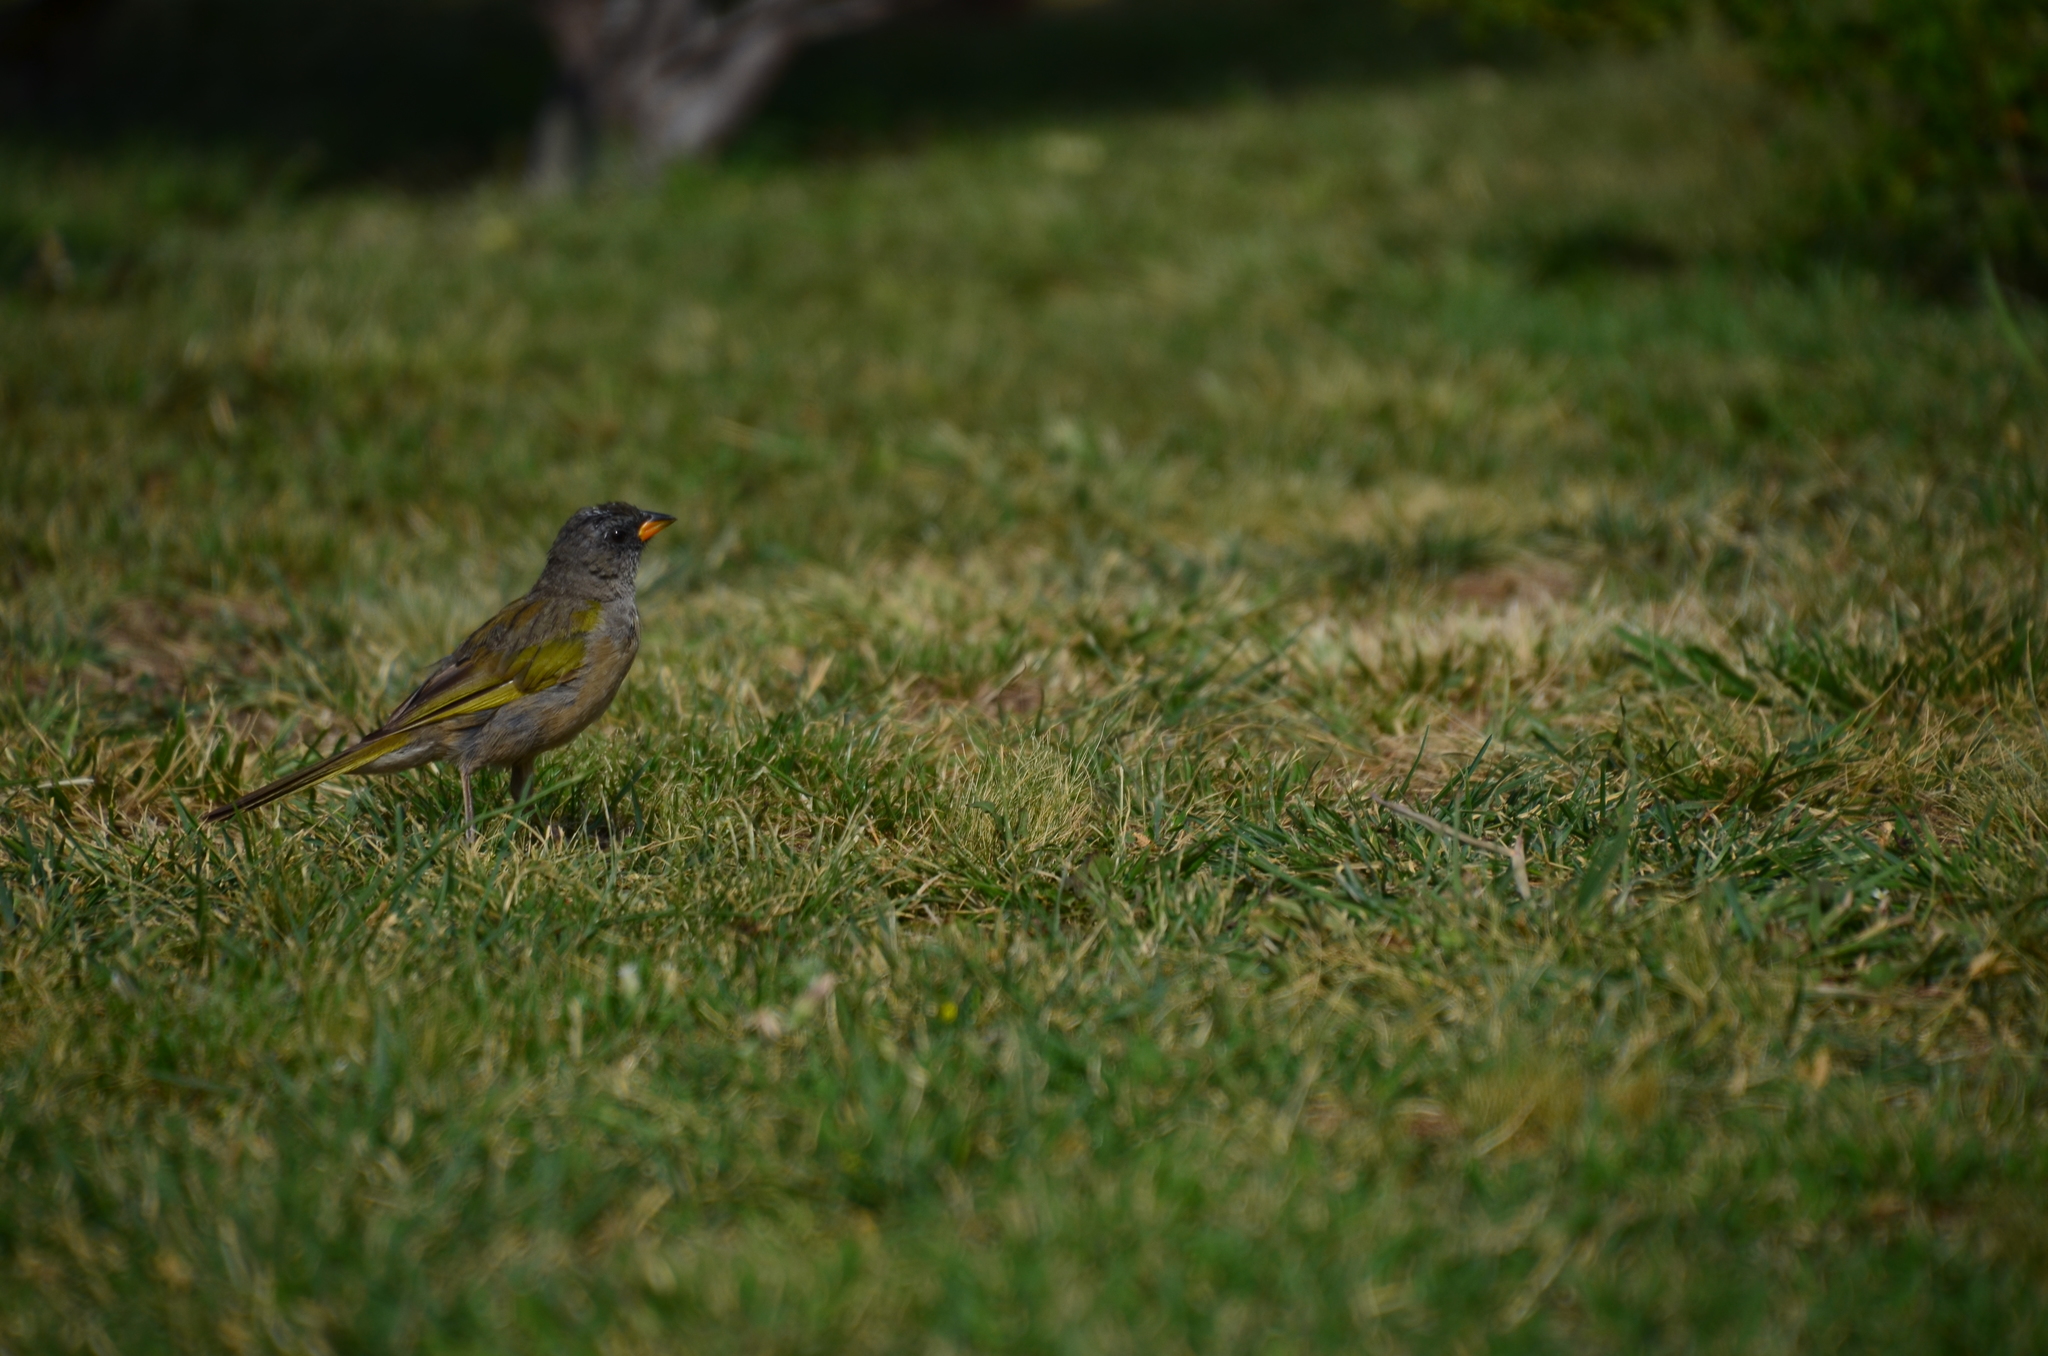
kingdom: Animalia
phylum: Chordata
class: Aves
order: Passeriformes
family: Thraupidae
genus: Embernagra
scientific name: Embernagra platensis
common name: Pampa finch
